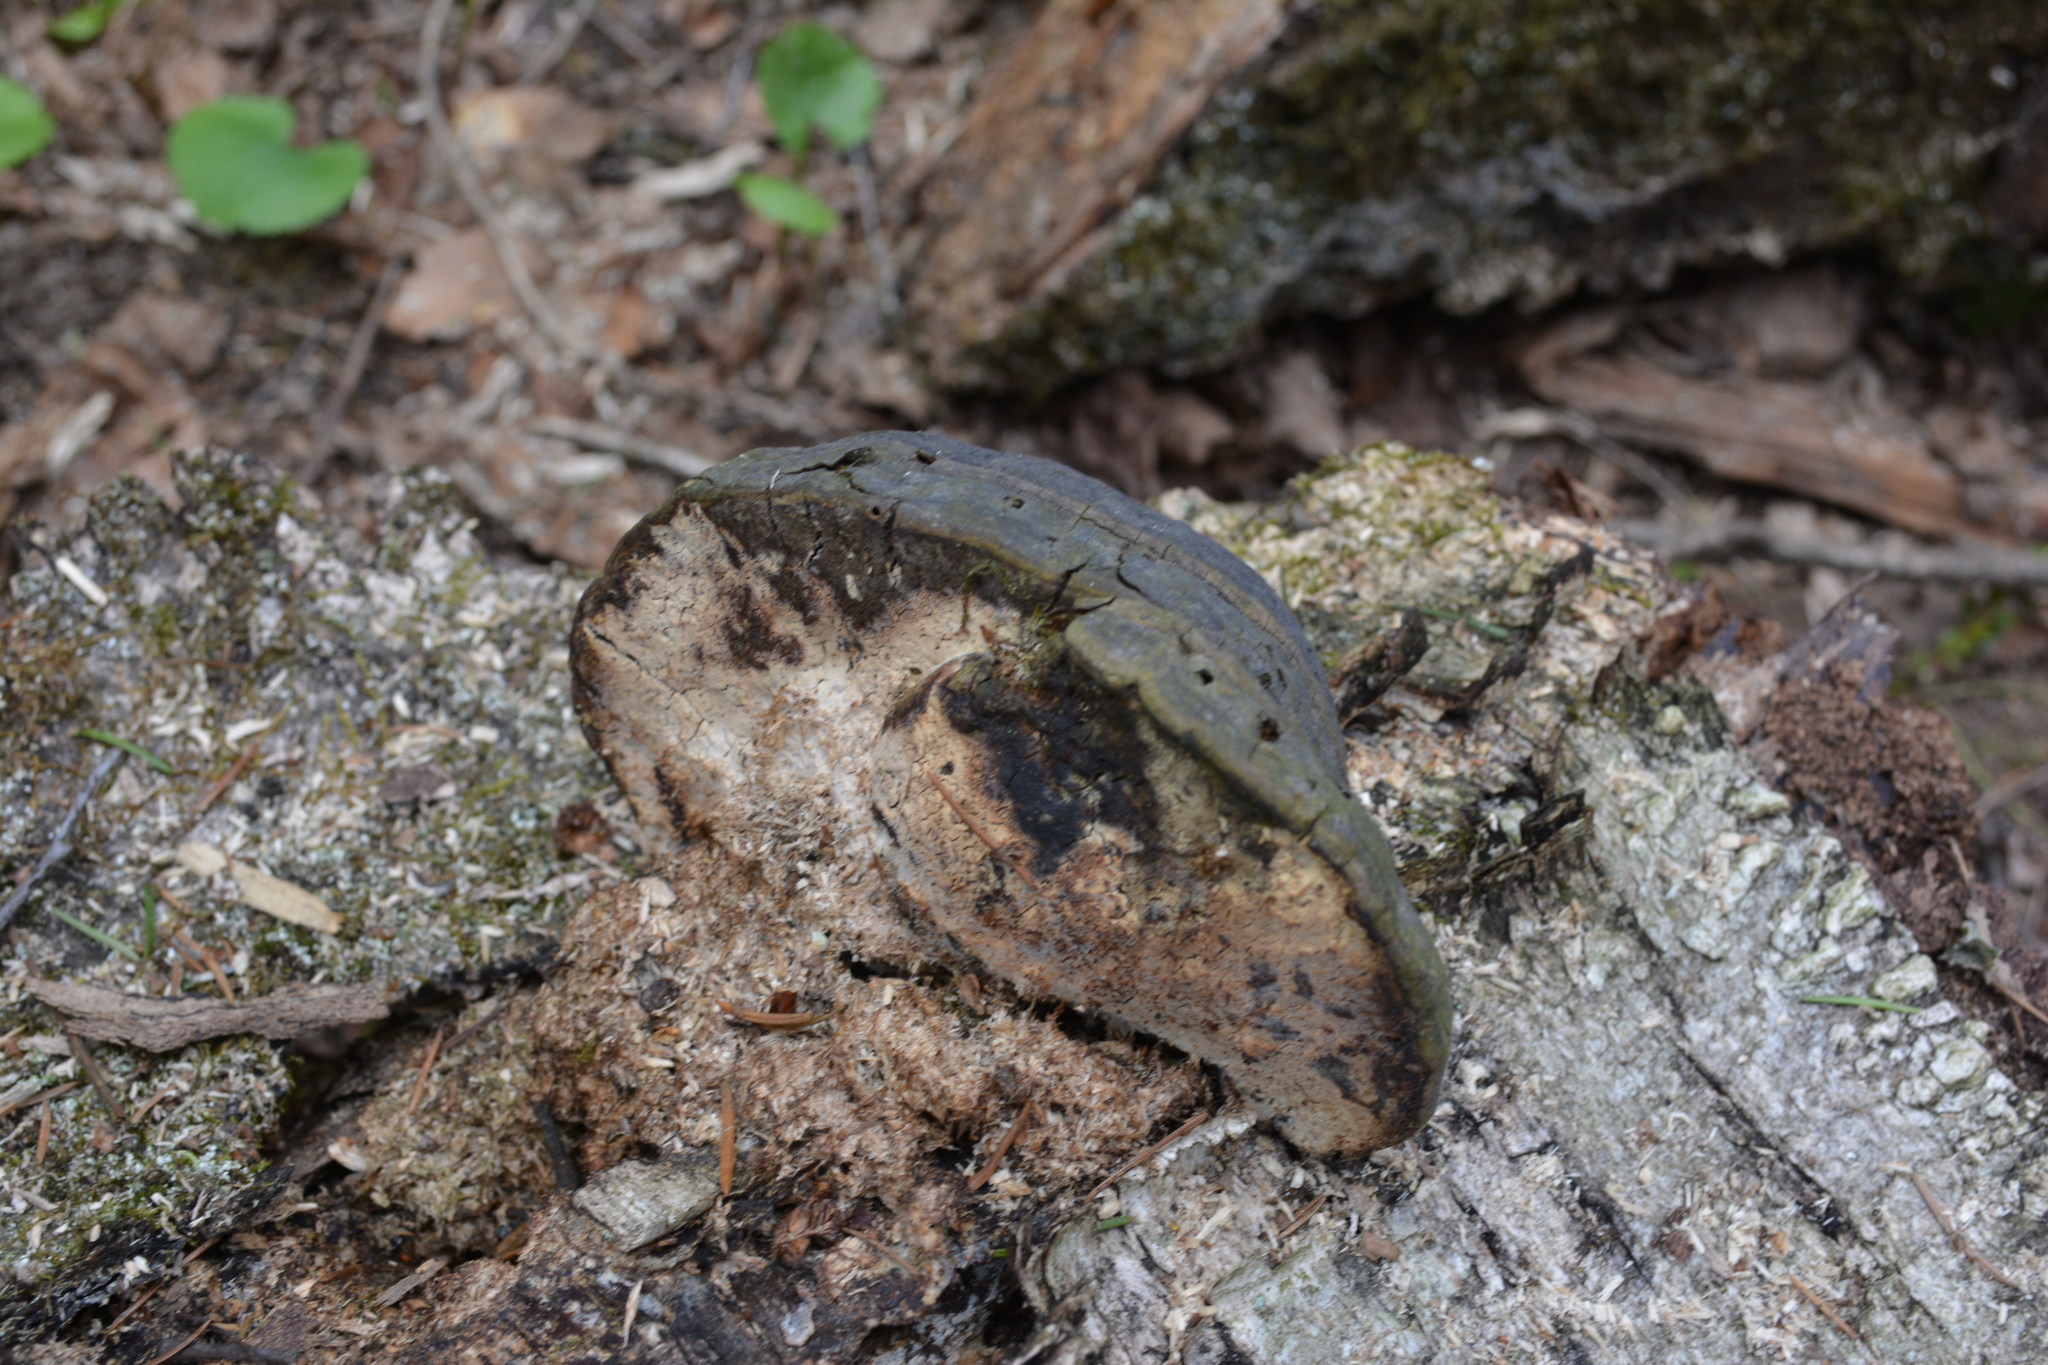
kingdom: Fungi
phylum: Basidiomycota
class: Agaricomycetes
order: Polyporales
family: Polyporaceae
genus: Fomes
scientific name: Fomes fomentarius
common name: Hoof fungus
